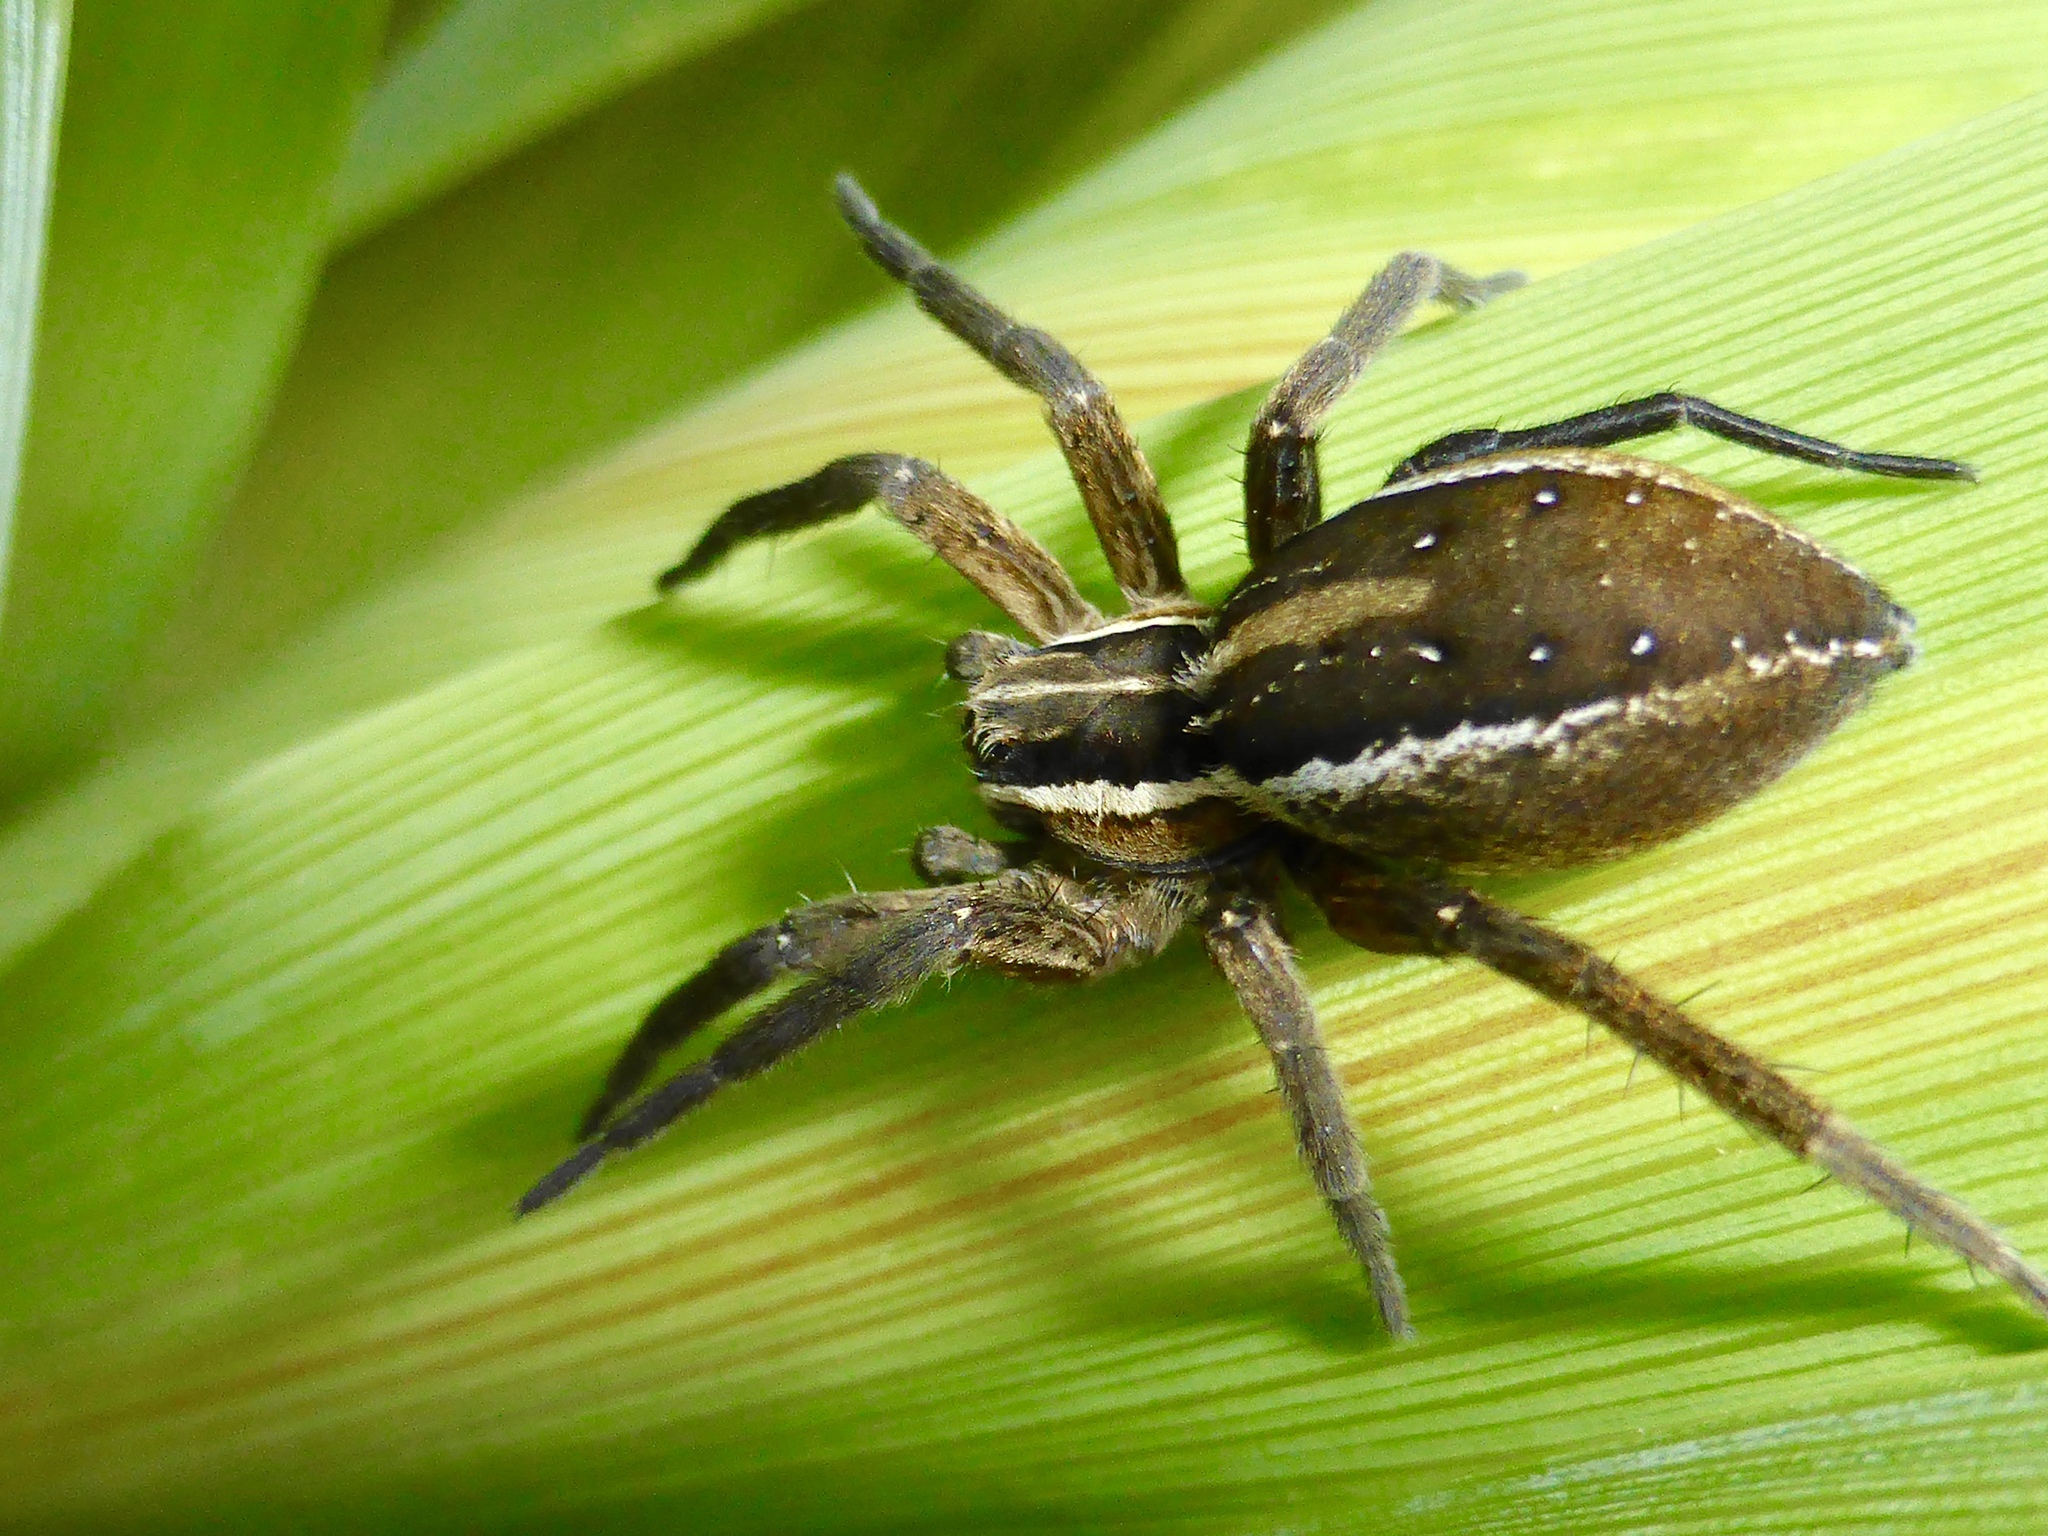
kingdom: Animalia
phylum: Arthropoda
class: Arachnida
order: Araneae
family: Pisauridae
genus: Dolomedes
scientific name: Dolomedes minor
